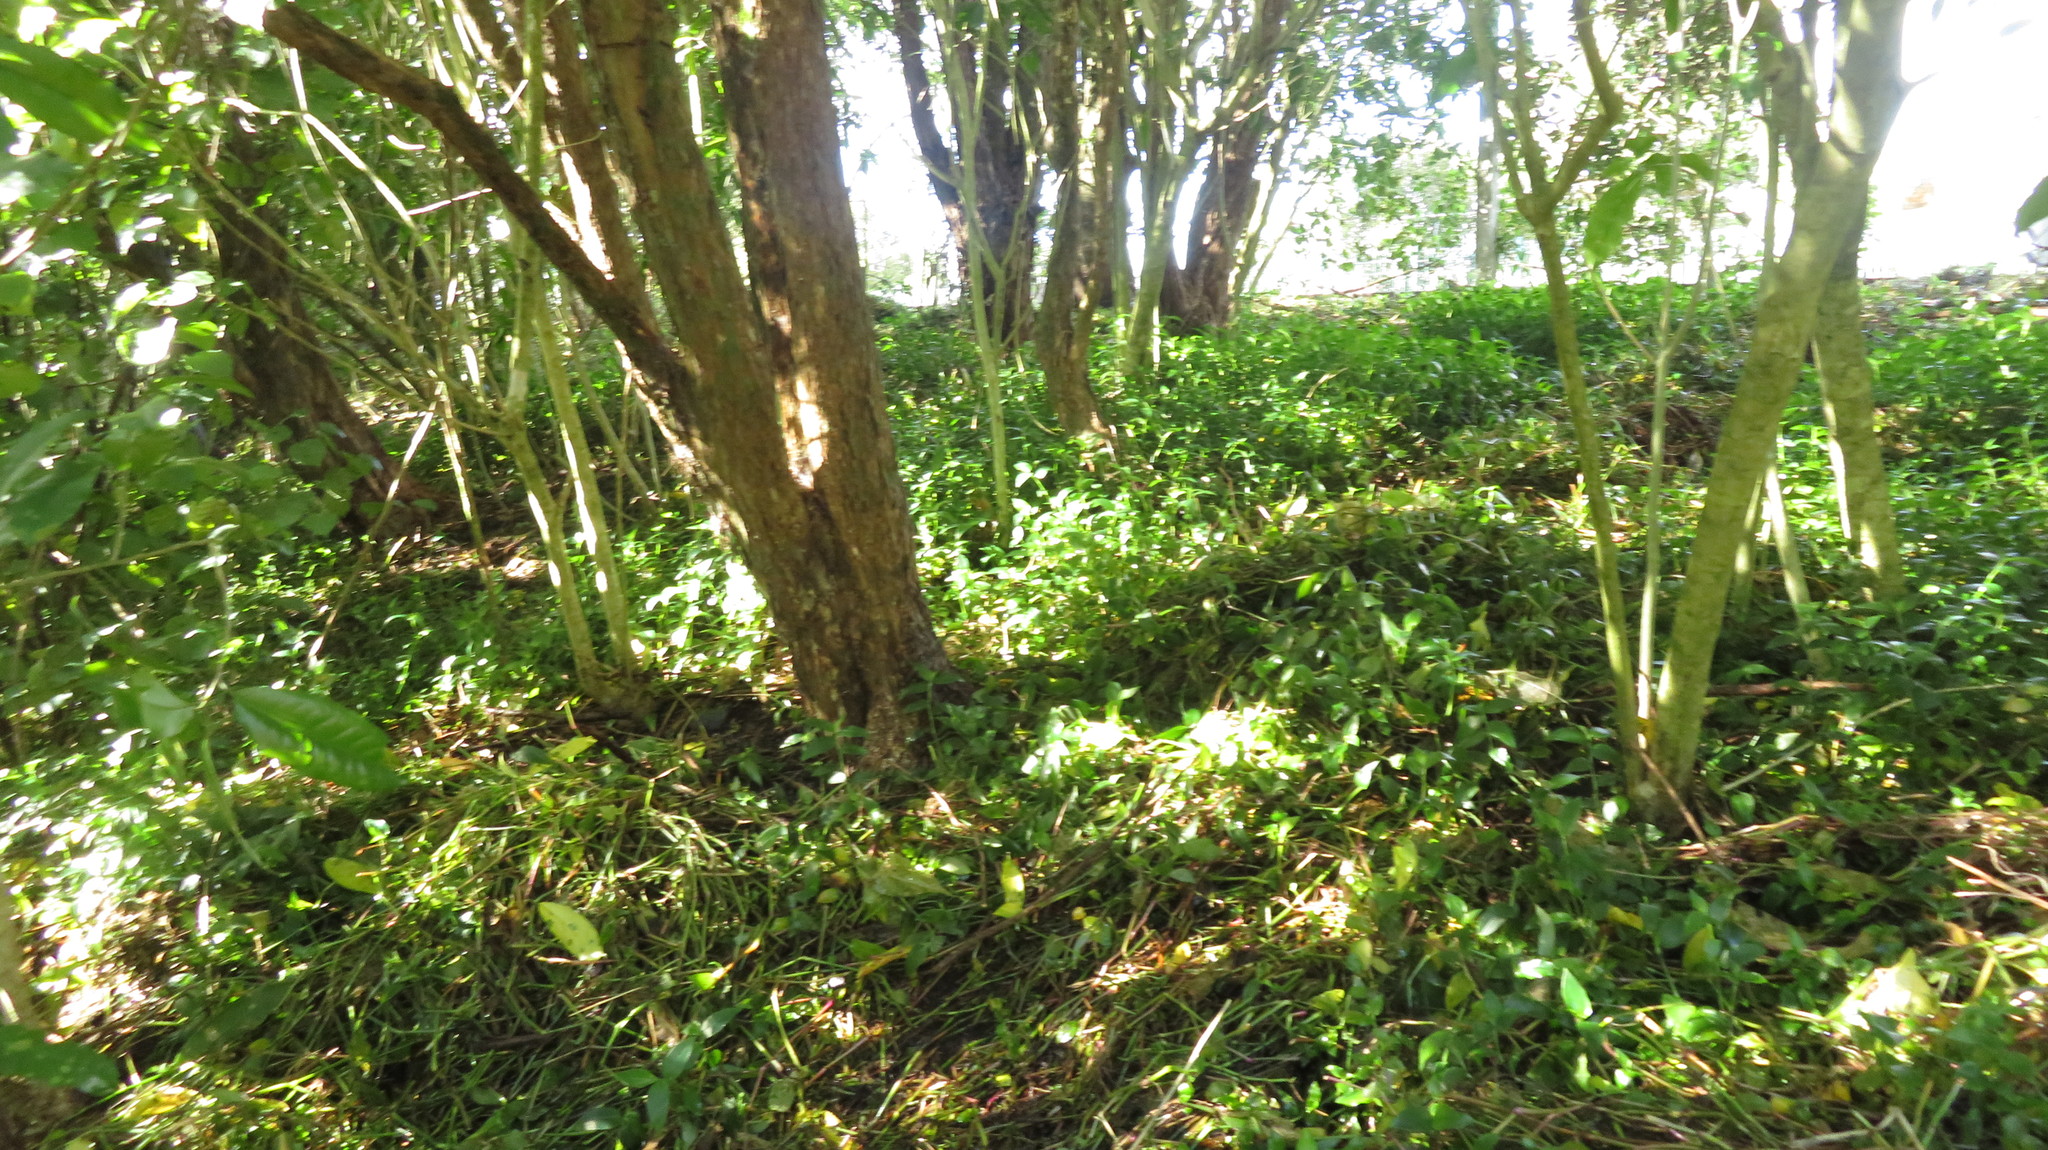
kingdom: Plantae
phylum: Tracheophyta
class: Liliopsida
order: Commelinales
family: Commelinaceae
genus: Tradescantia
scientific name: Tradescantia fluminensis
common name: Wandering-jew
